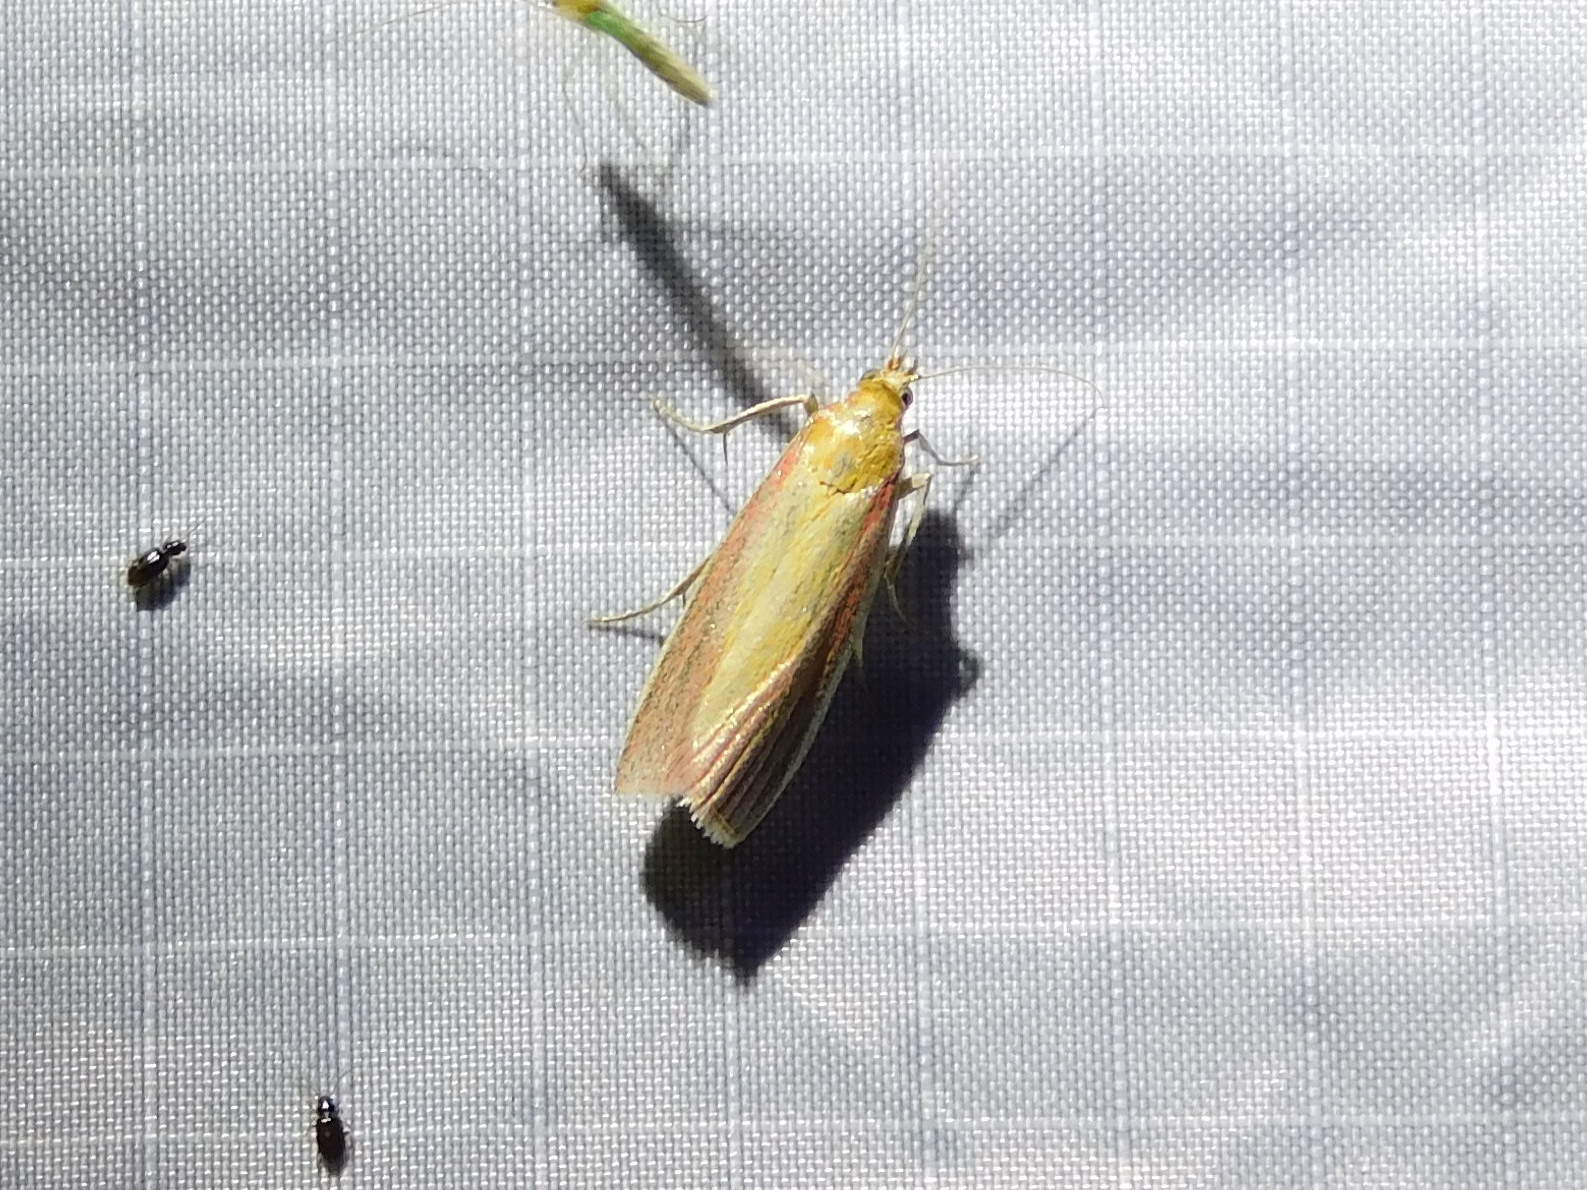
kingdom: Animalia
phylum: Arthropoda
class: Insecta
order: Lepidoptera
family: Pyralidae
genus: Oncocera
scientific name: Oncocera semirubella
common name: Rosy-striped knot-horn
